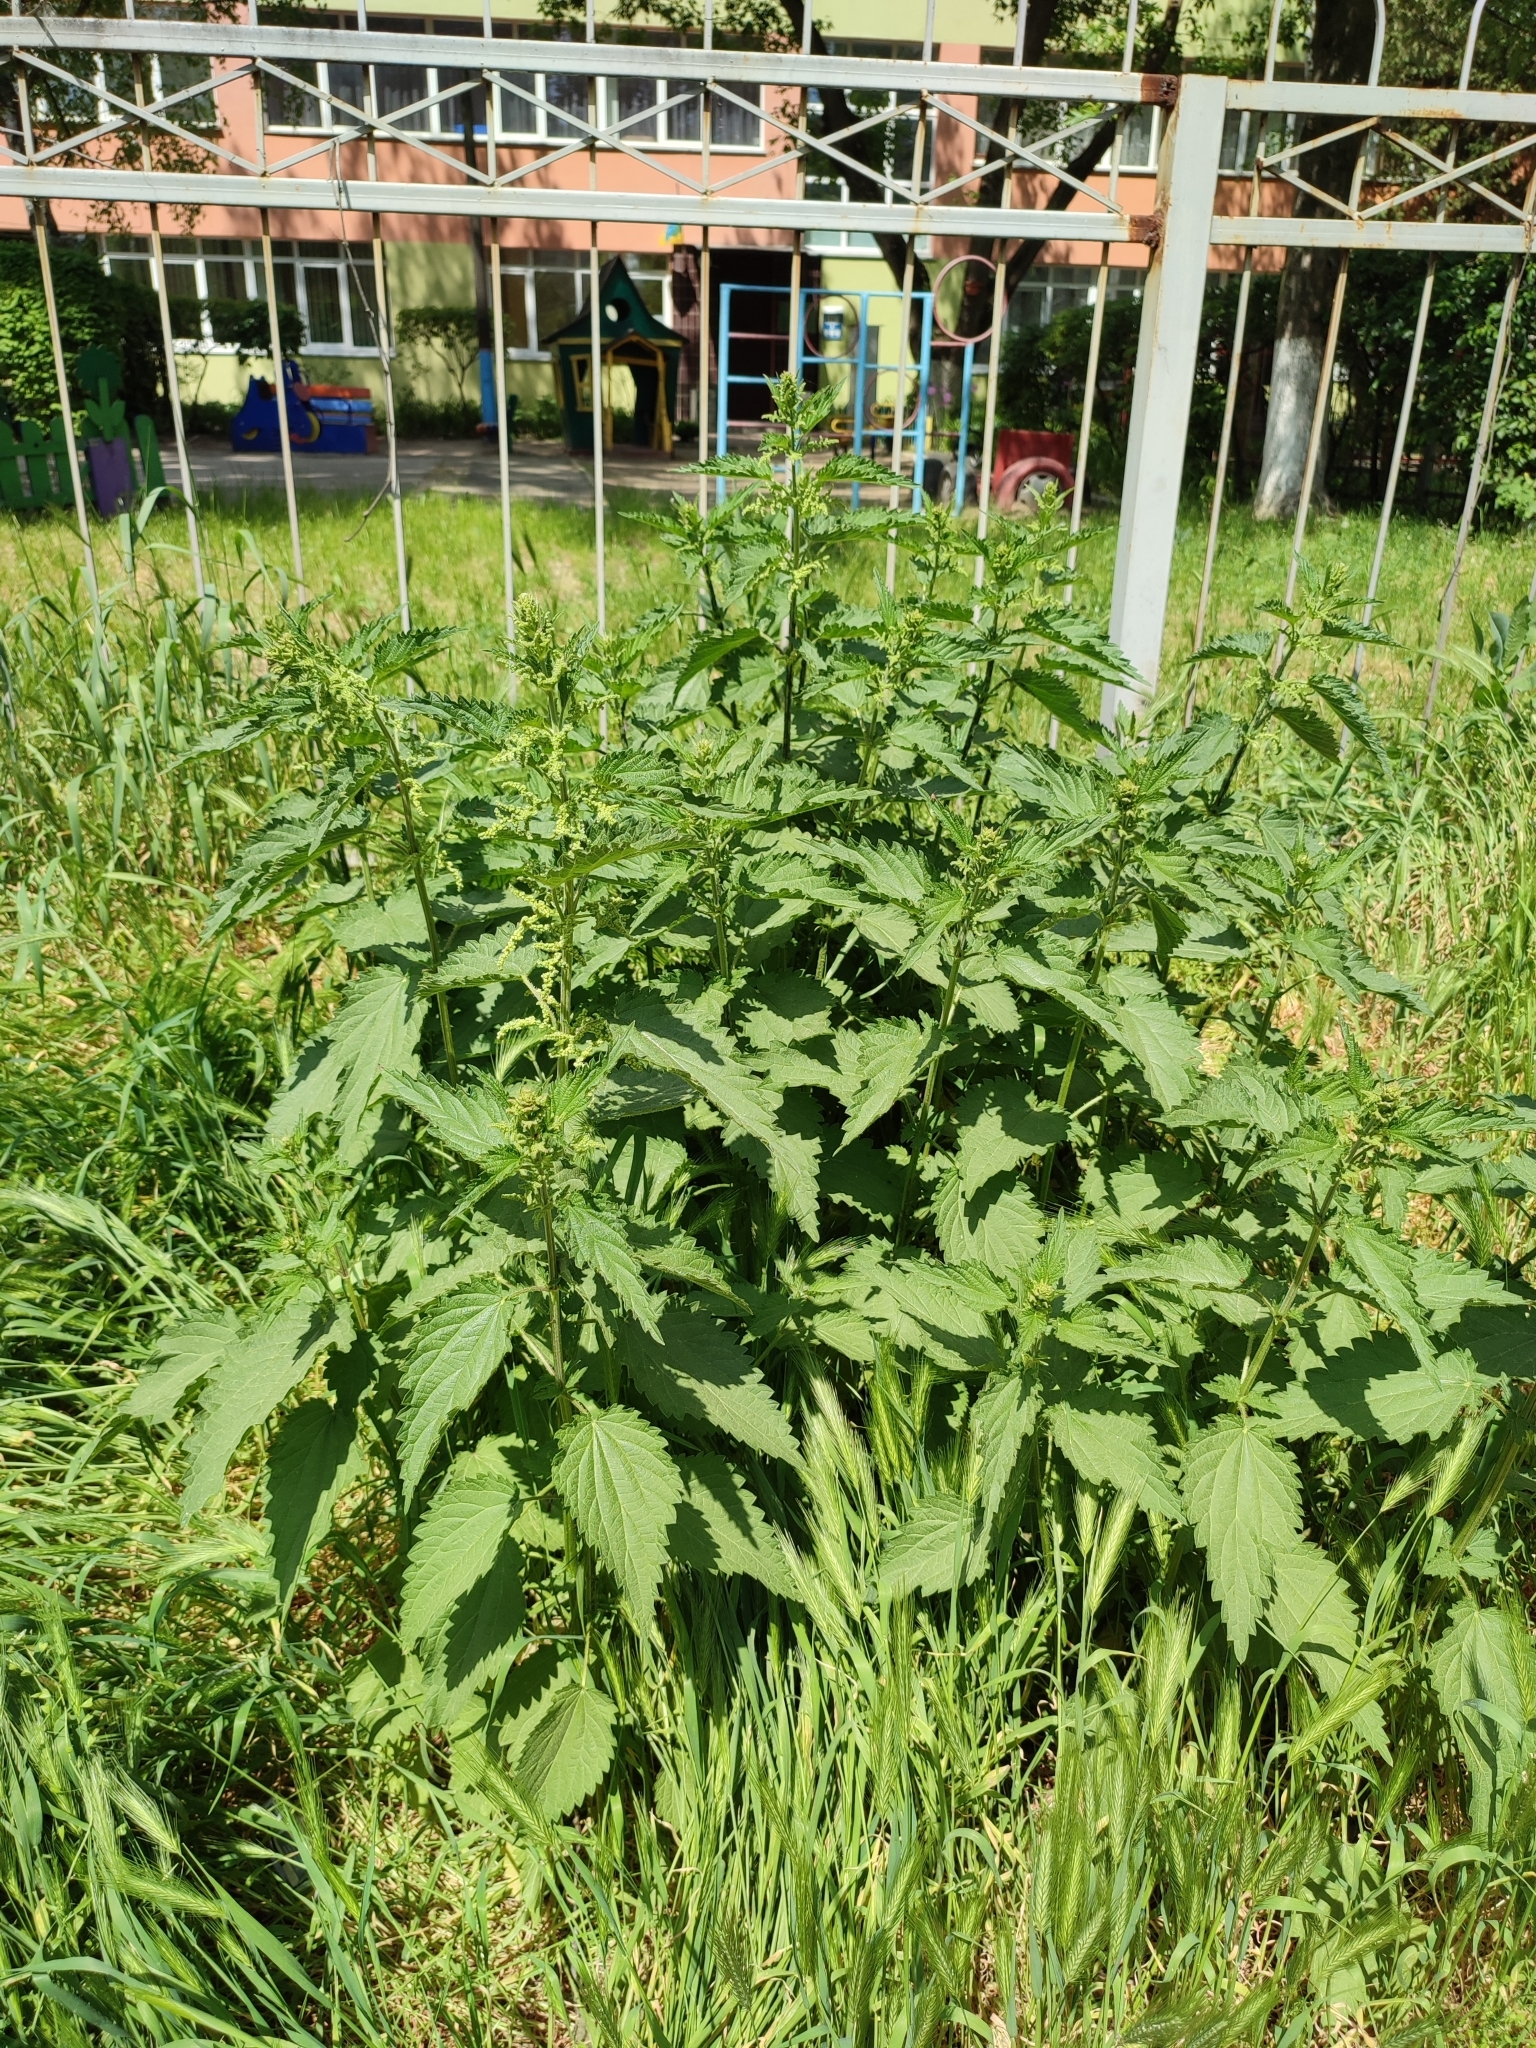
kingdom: Plantae
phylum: Tracheophyta
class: Magnoliopsida
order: Rosales
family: Urticaceae
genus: Urtica
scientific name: Urtica dioica
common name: Common nettle
